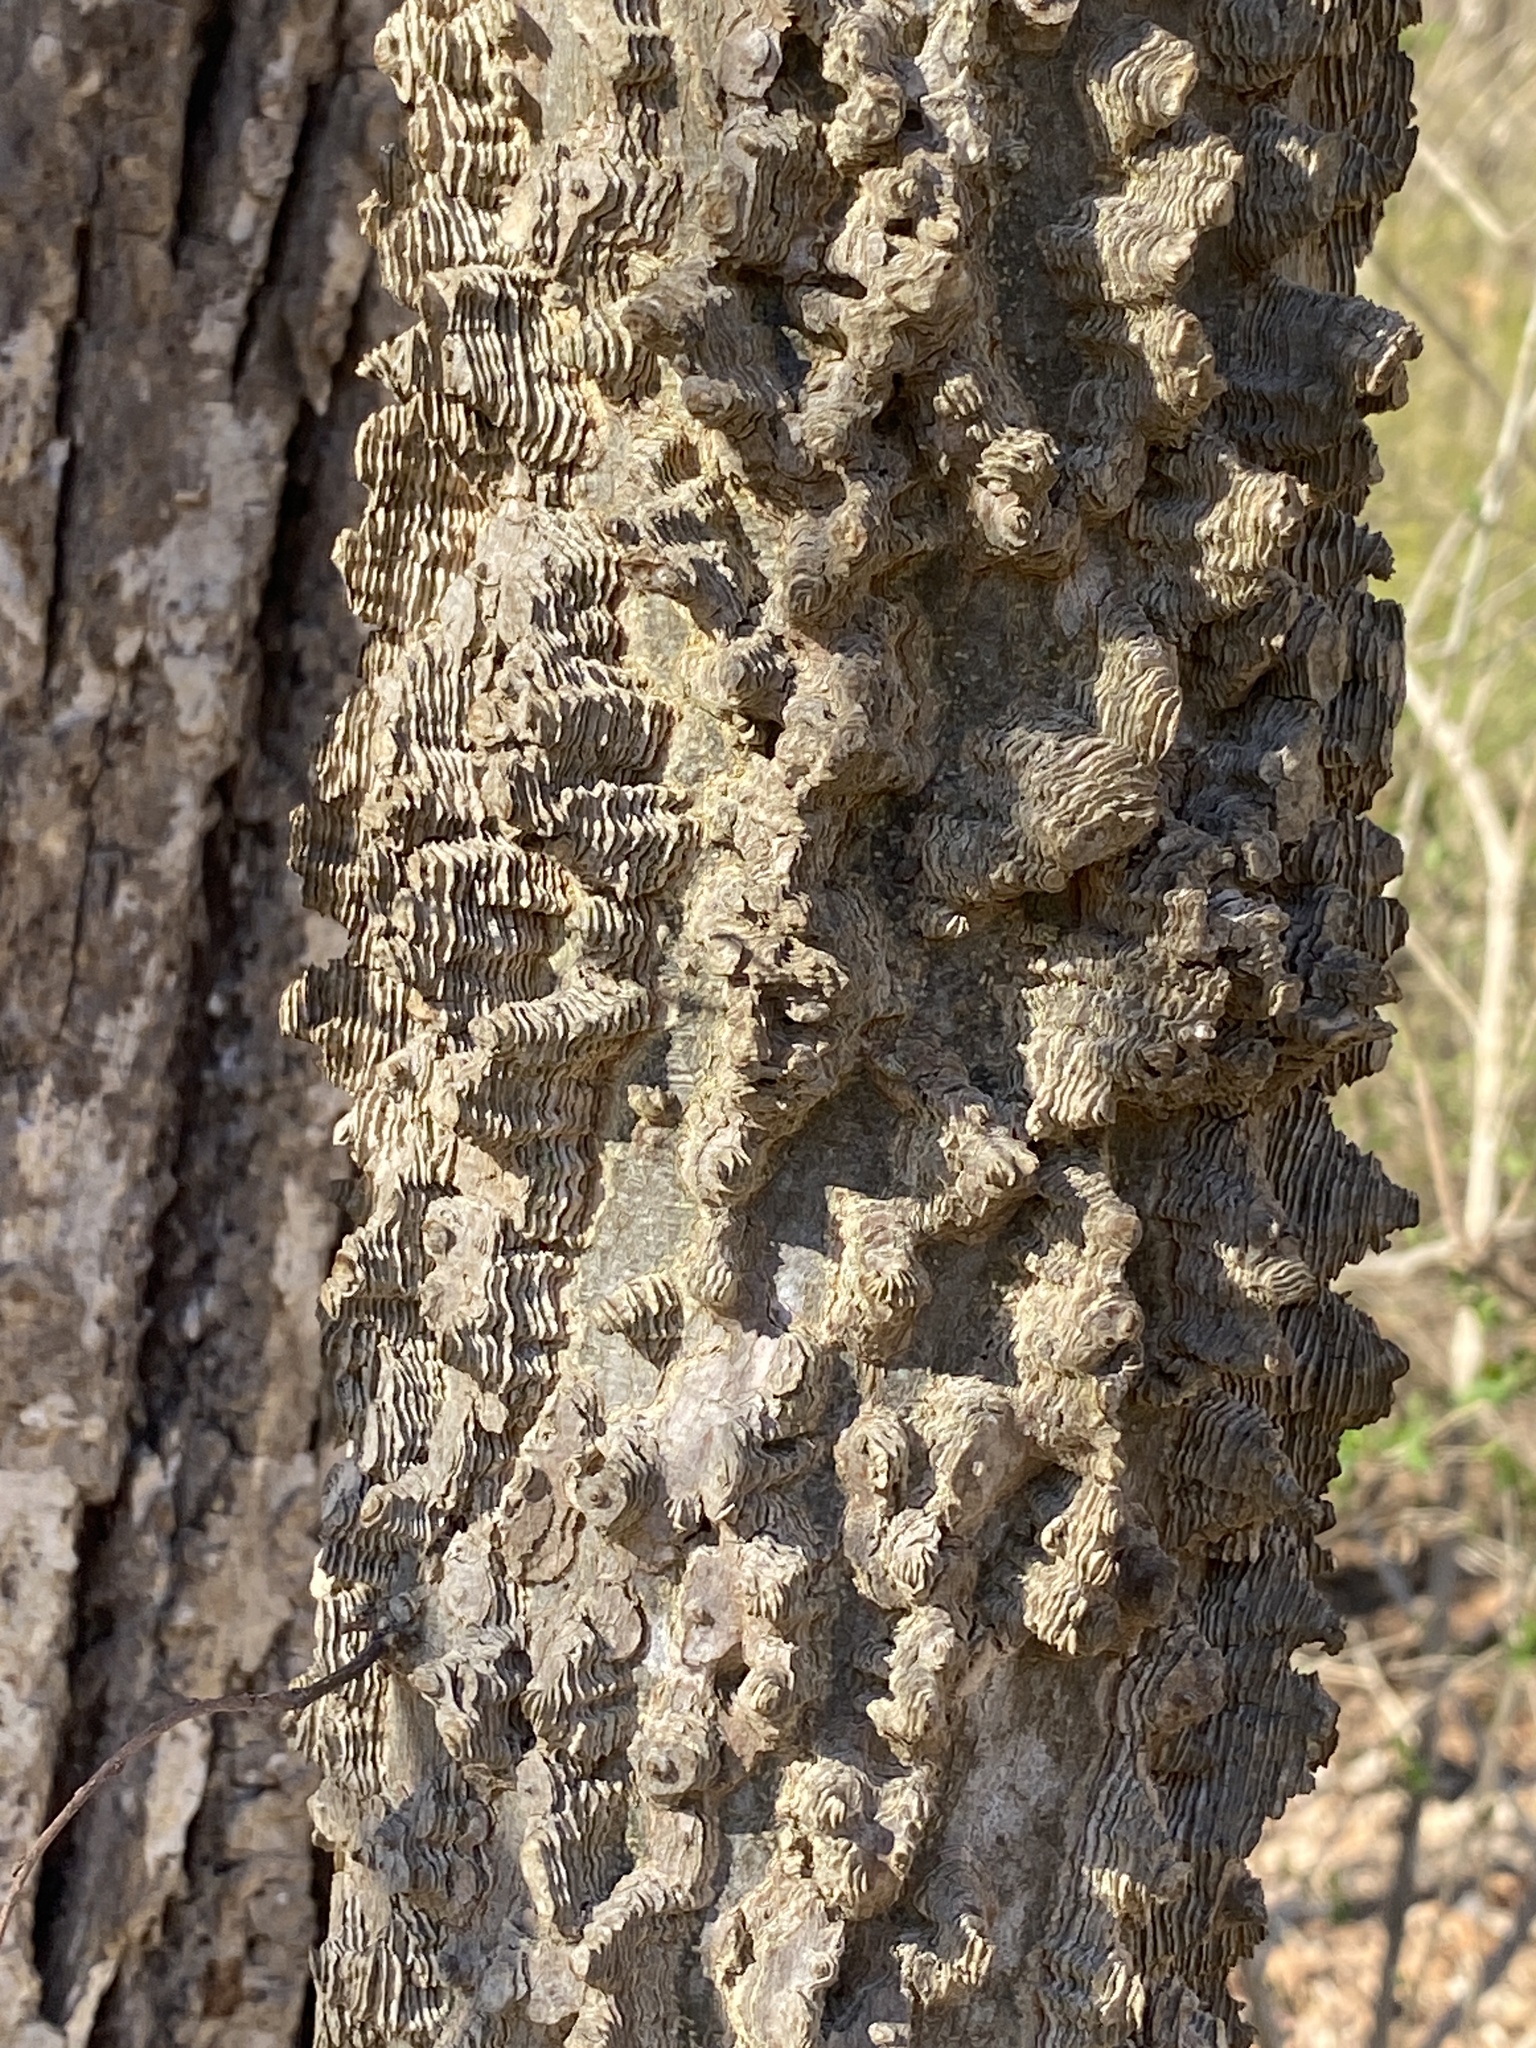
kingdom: Plantae
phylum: Tracheophyta
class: Magnoliopsida
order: Rosales
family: Cannabaceae
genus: Celtis
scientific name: Celtis occidentalis
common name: Common hackberry
